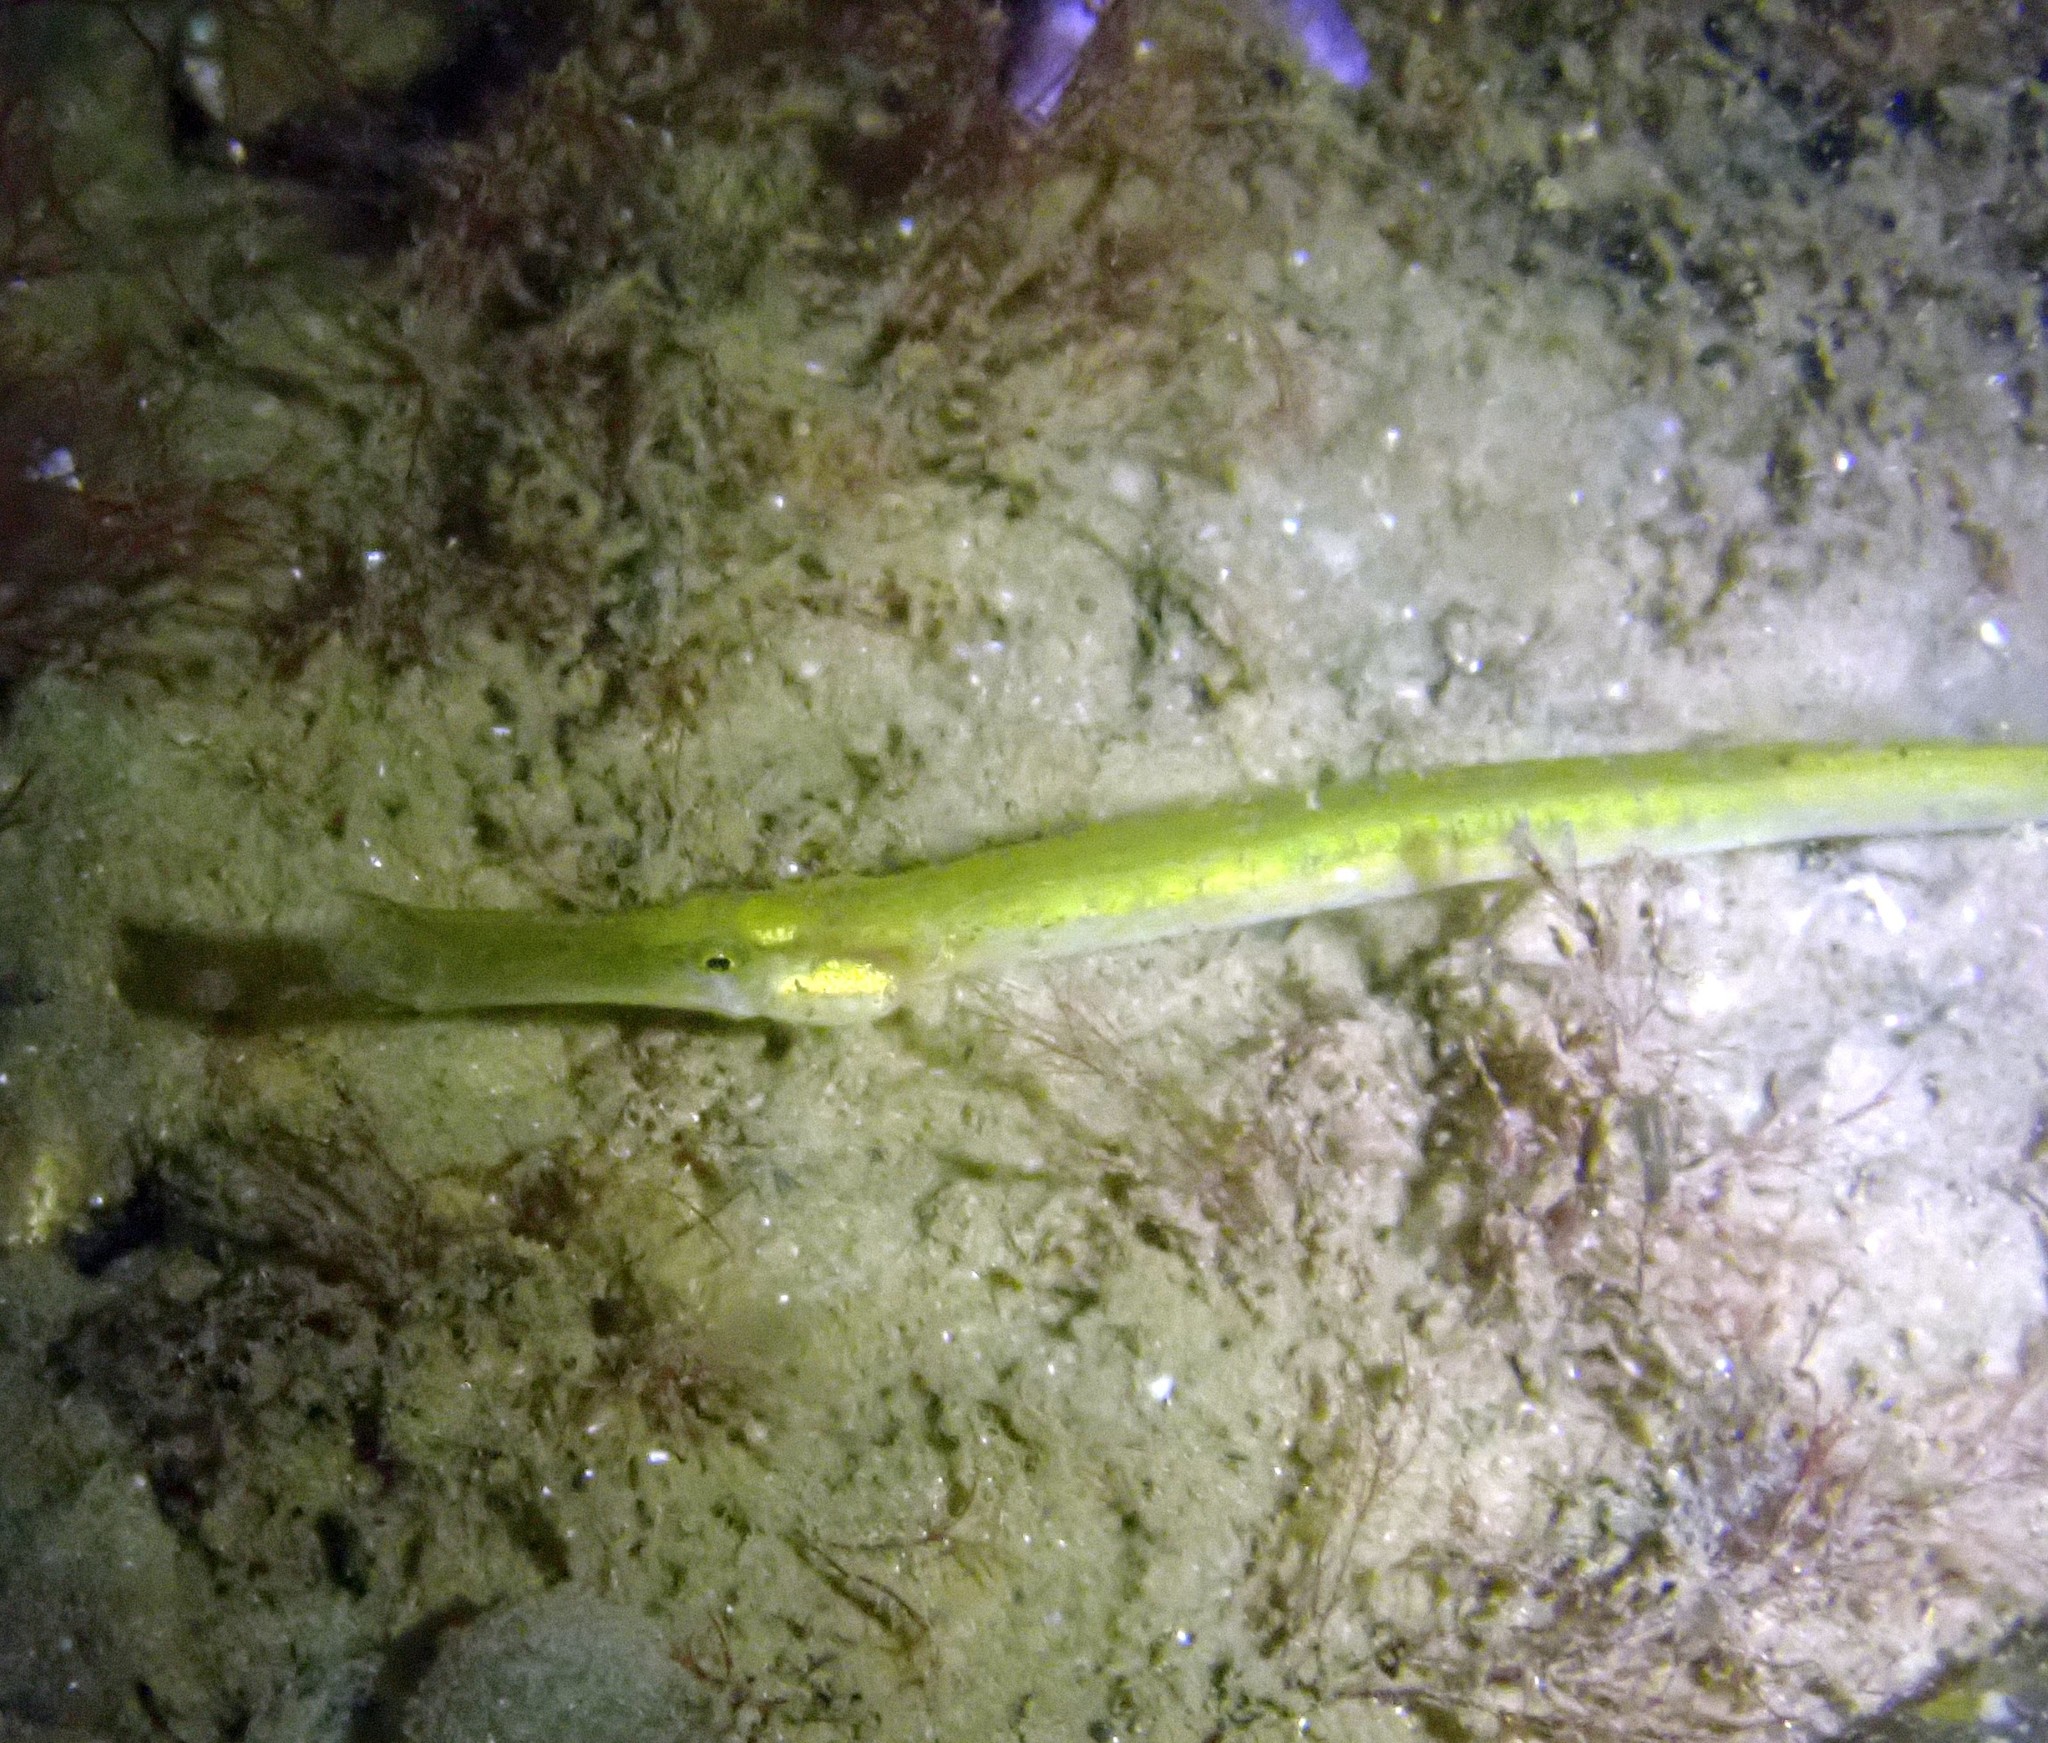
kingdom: Animalia
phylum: Chordata
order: Syngnathiformes
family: Syngnathidae
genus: Syngnathus
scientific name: Syngnathus typhle
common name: Deep-snouted pipefish
